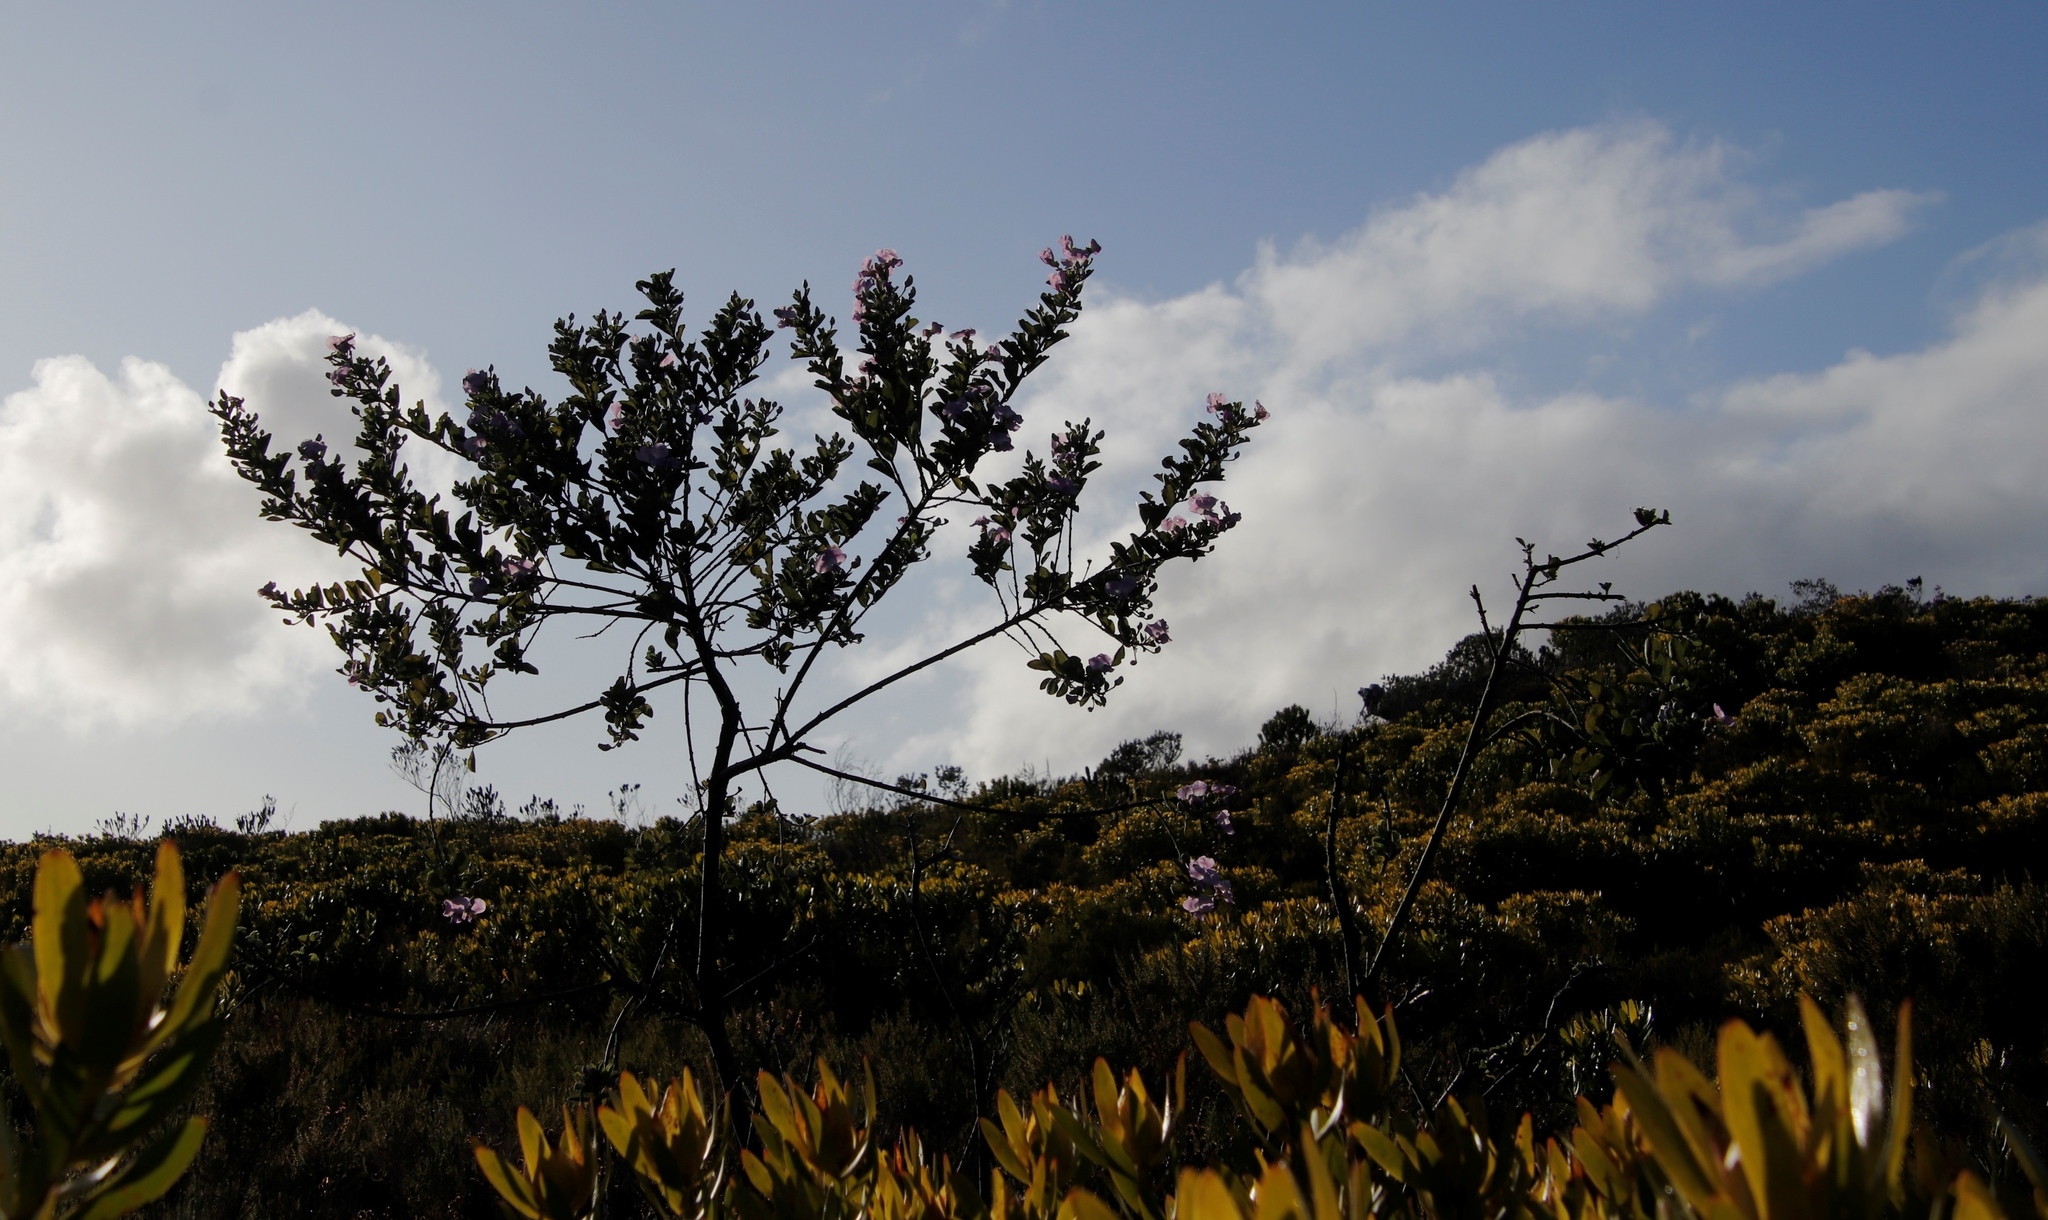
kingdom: Plantae
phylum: Tracheophyta
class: Magnoliopsida
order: Fabales
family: Fabaceae
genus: Podalyria
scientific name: Podalyria calyptrata
